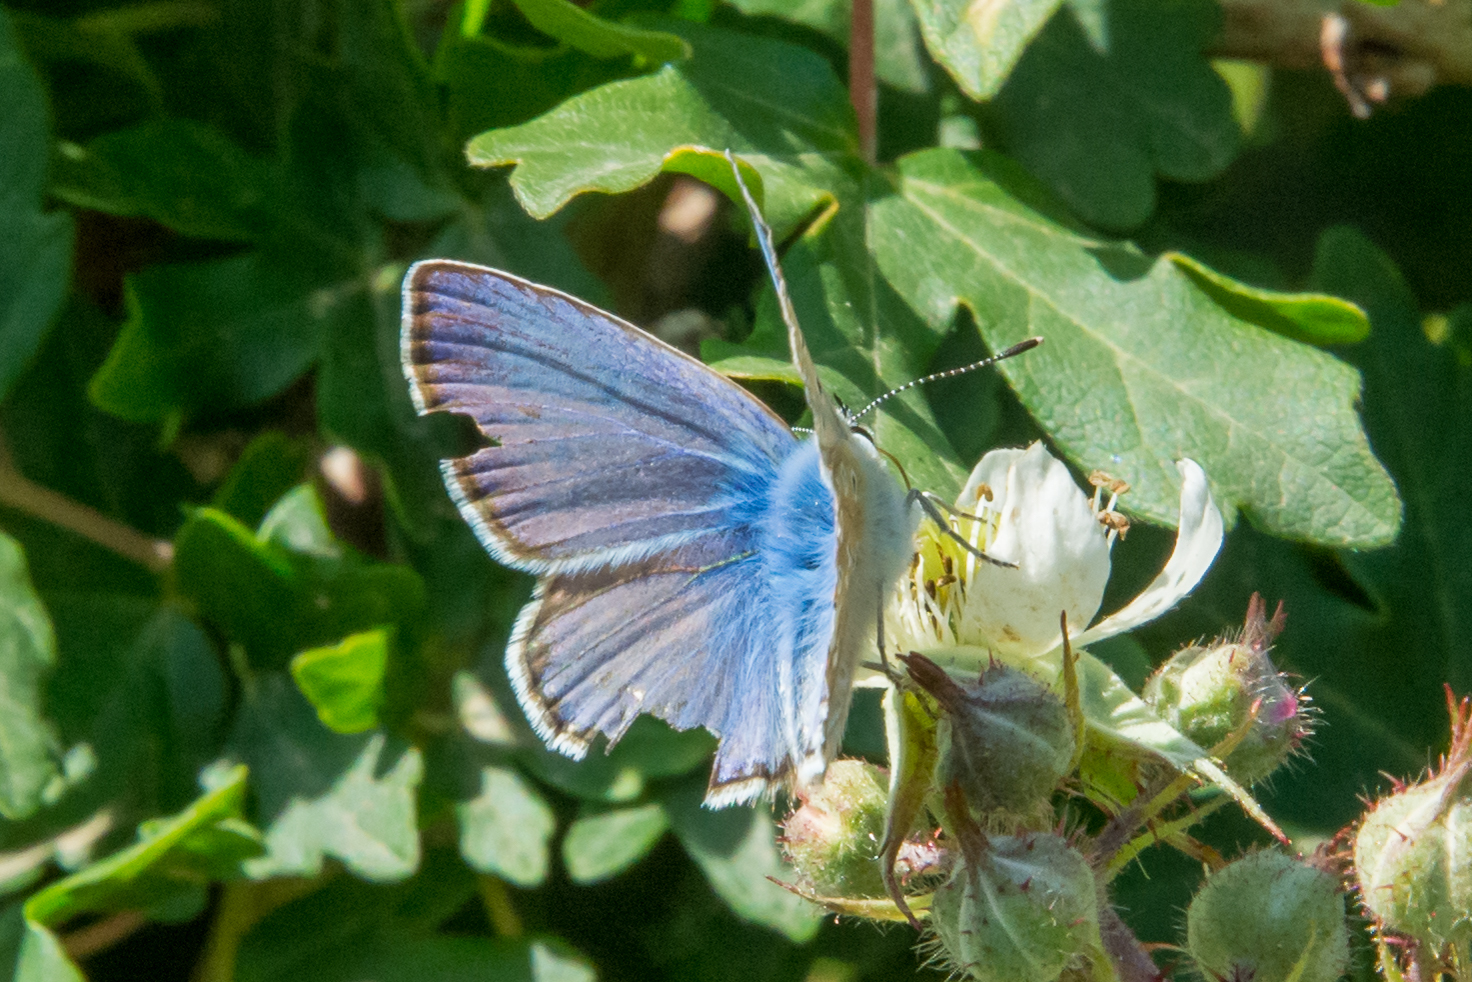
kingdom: Animalia
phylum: Arthropoda
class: Insecta
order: Lepidoptera
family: Lycaenidae
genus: Polyommatus
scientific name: Polyommatus celina
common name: Austaut's blue
